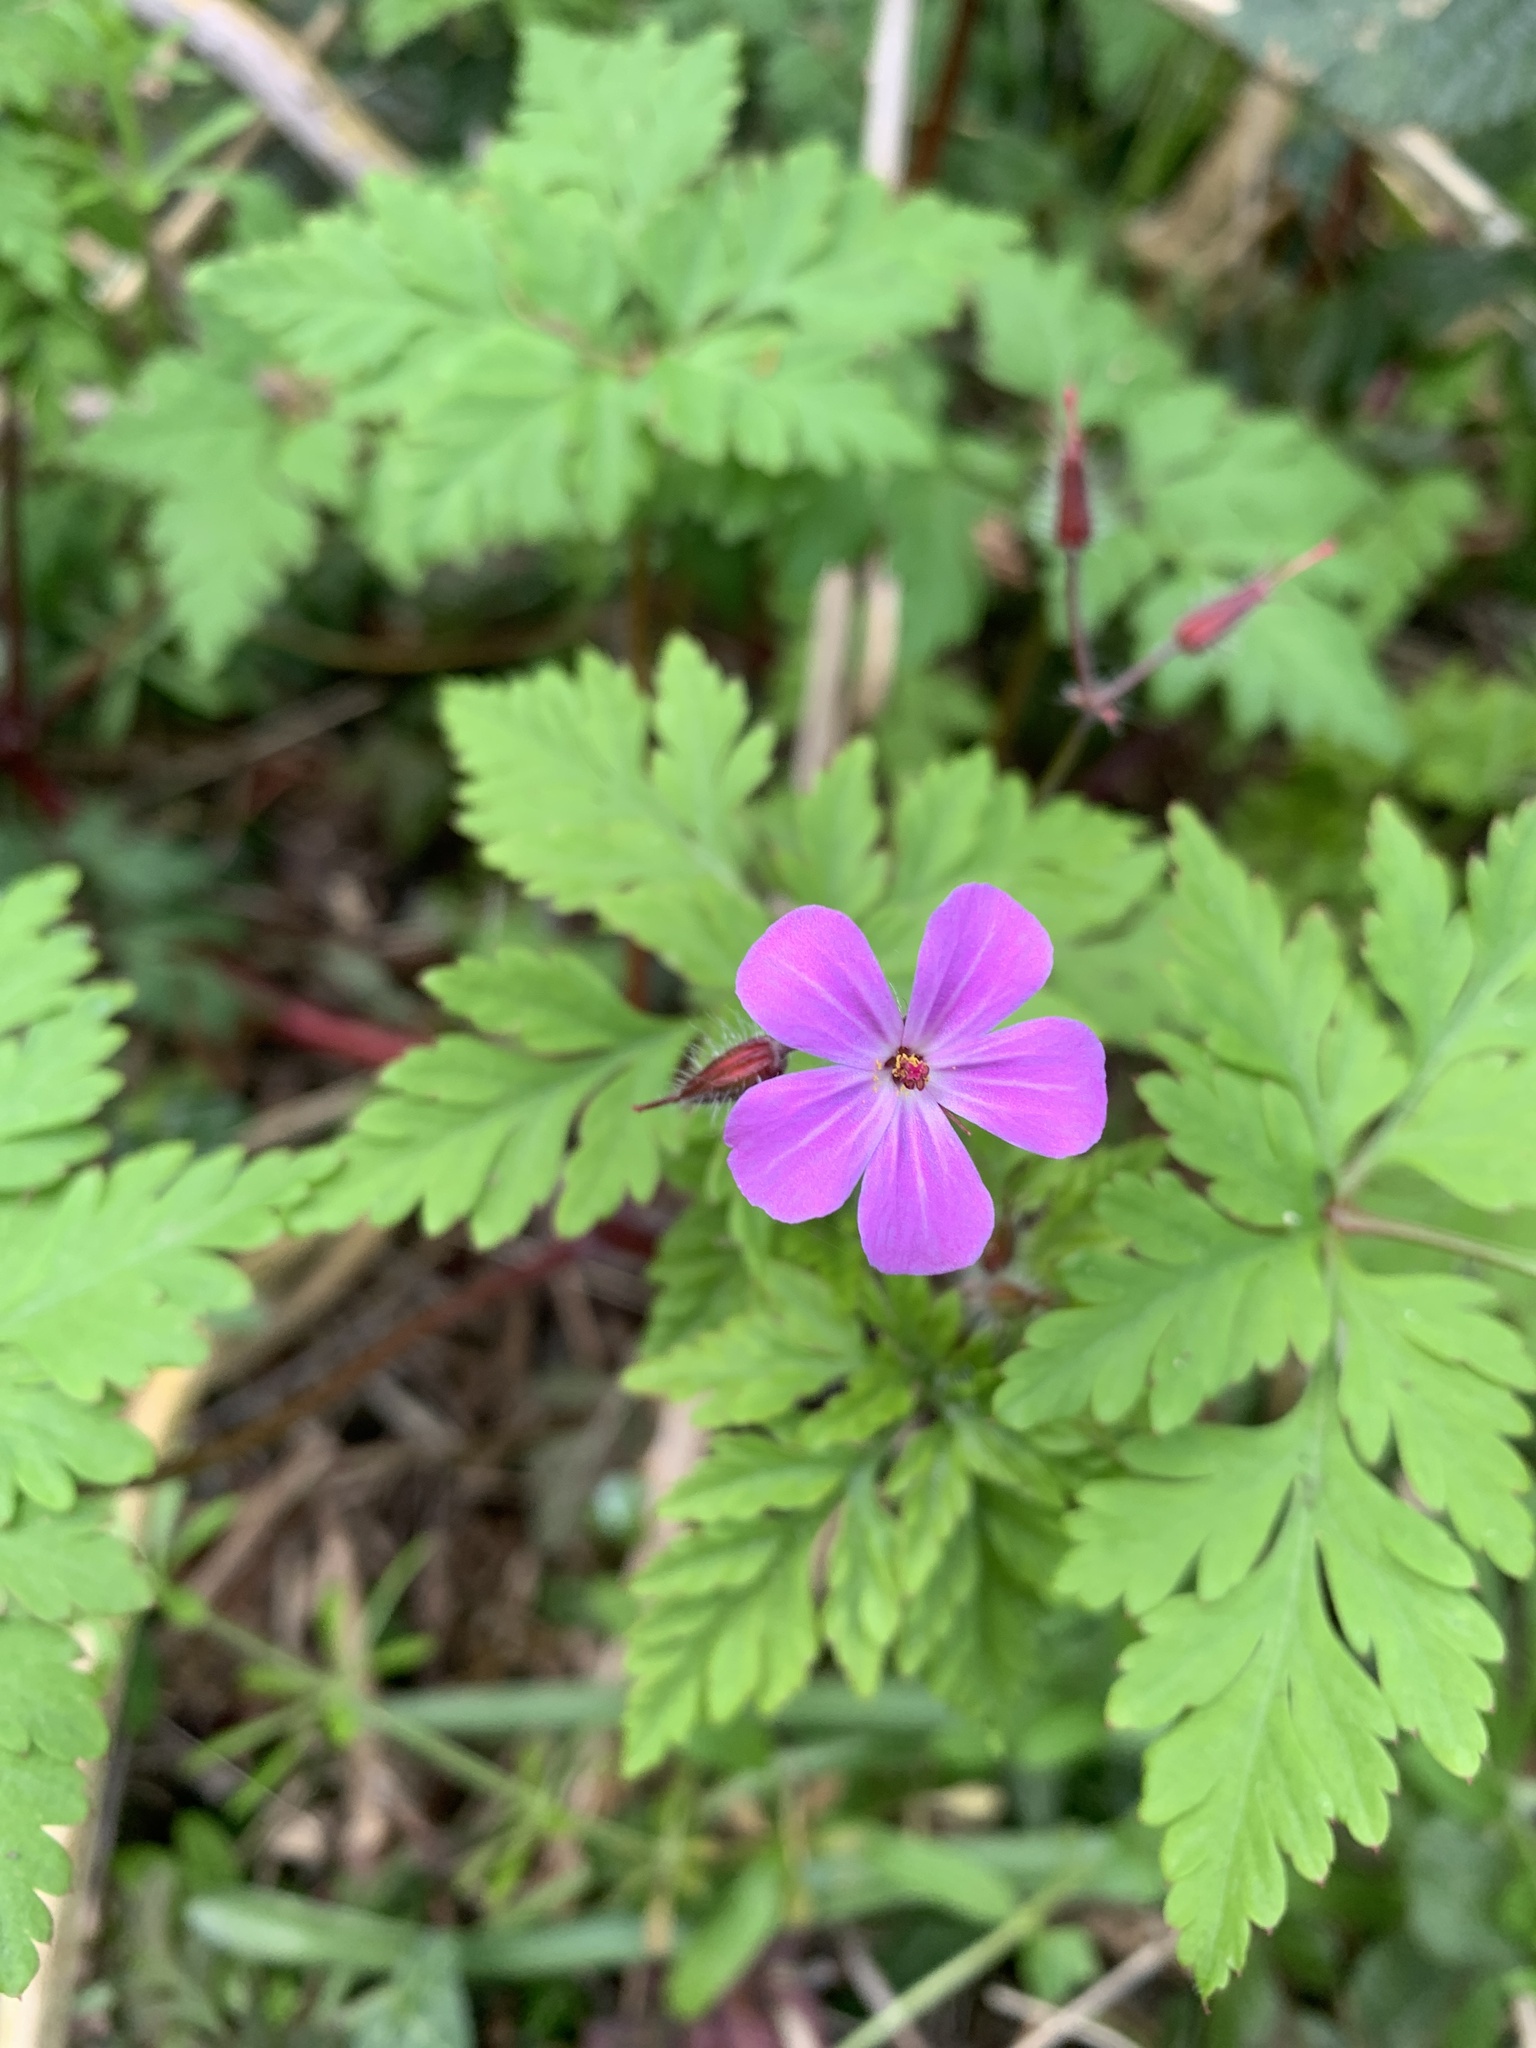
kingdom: Plantae
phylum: Tracheophyta
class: Magnoliopsida
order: Geraniales
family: Geraniaceae
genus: Geranium
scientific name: Geranium robertianum
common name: Herb-robert
